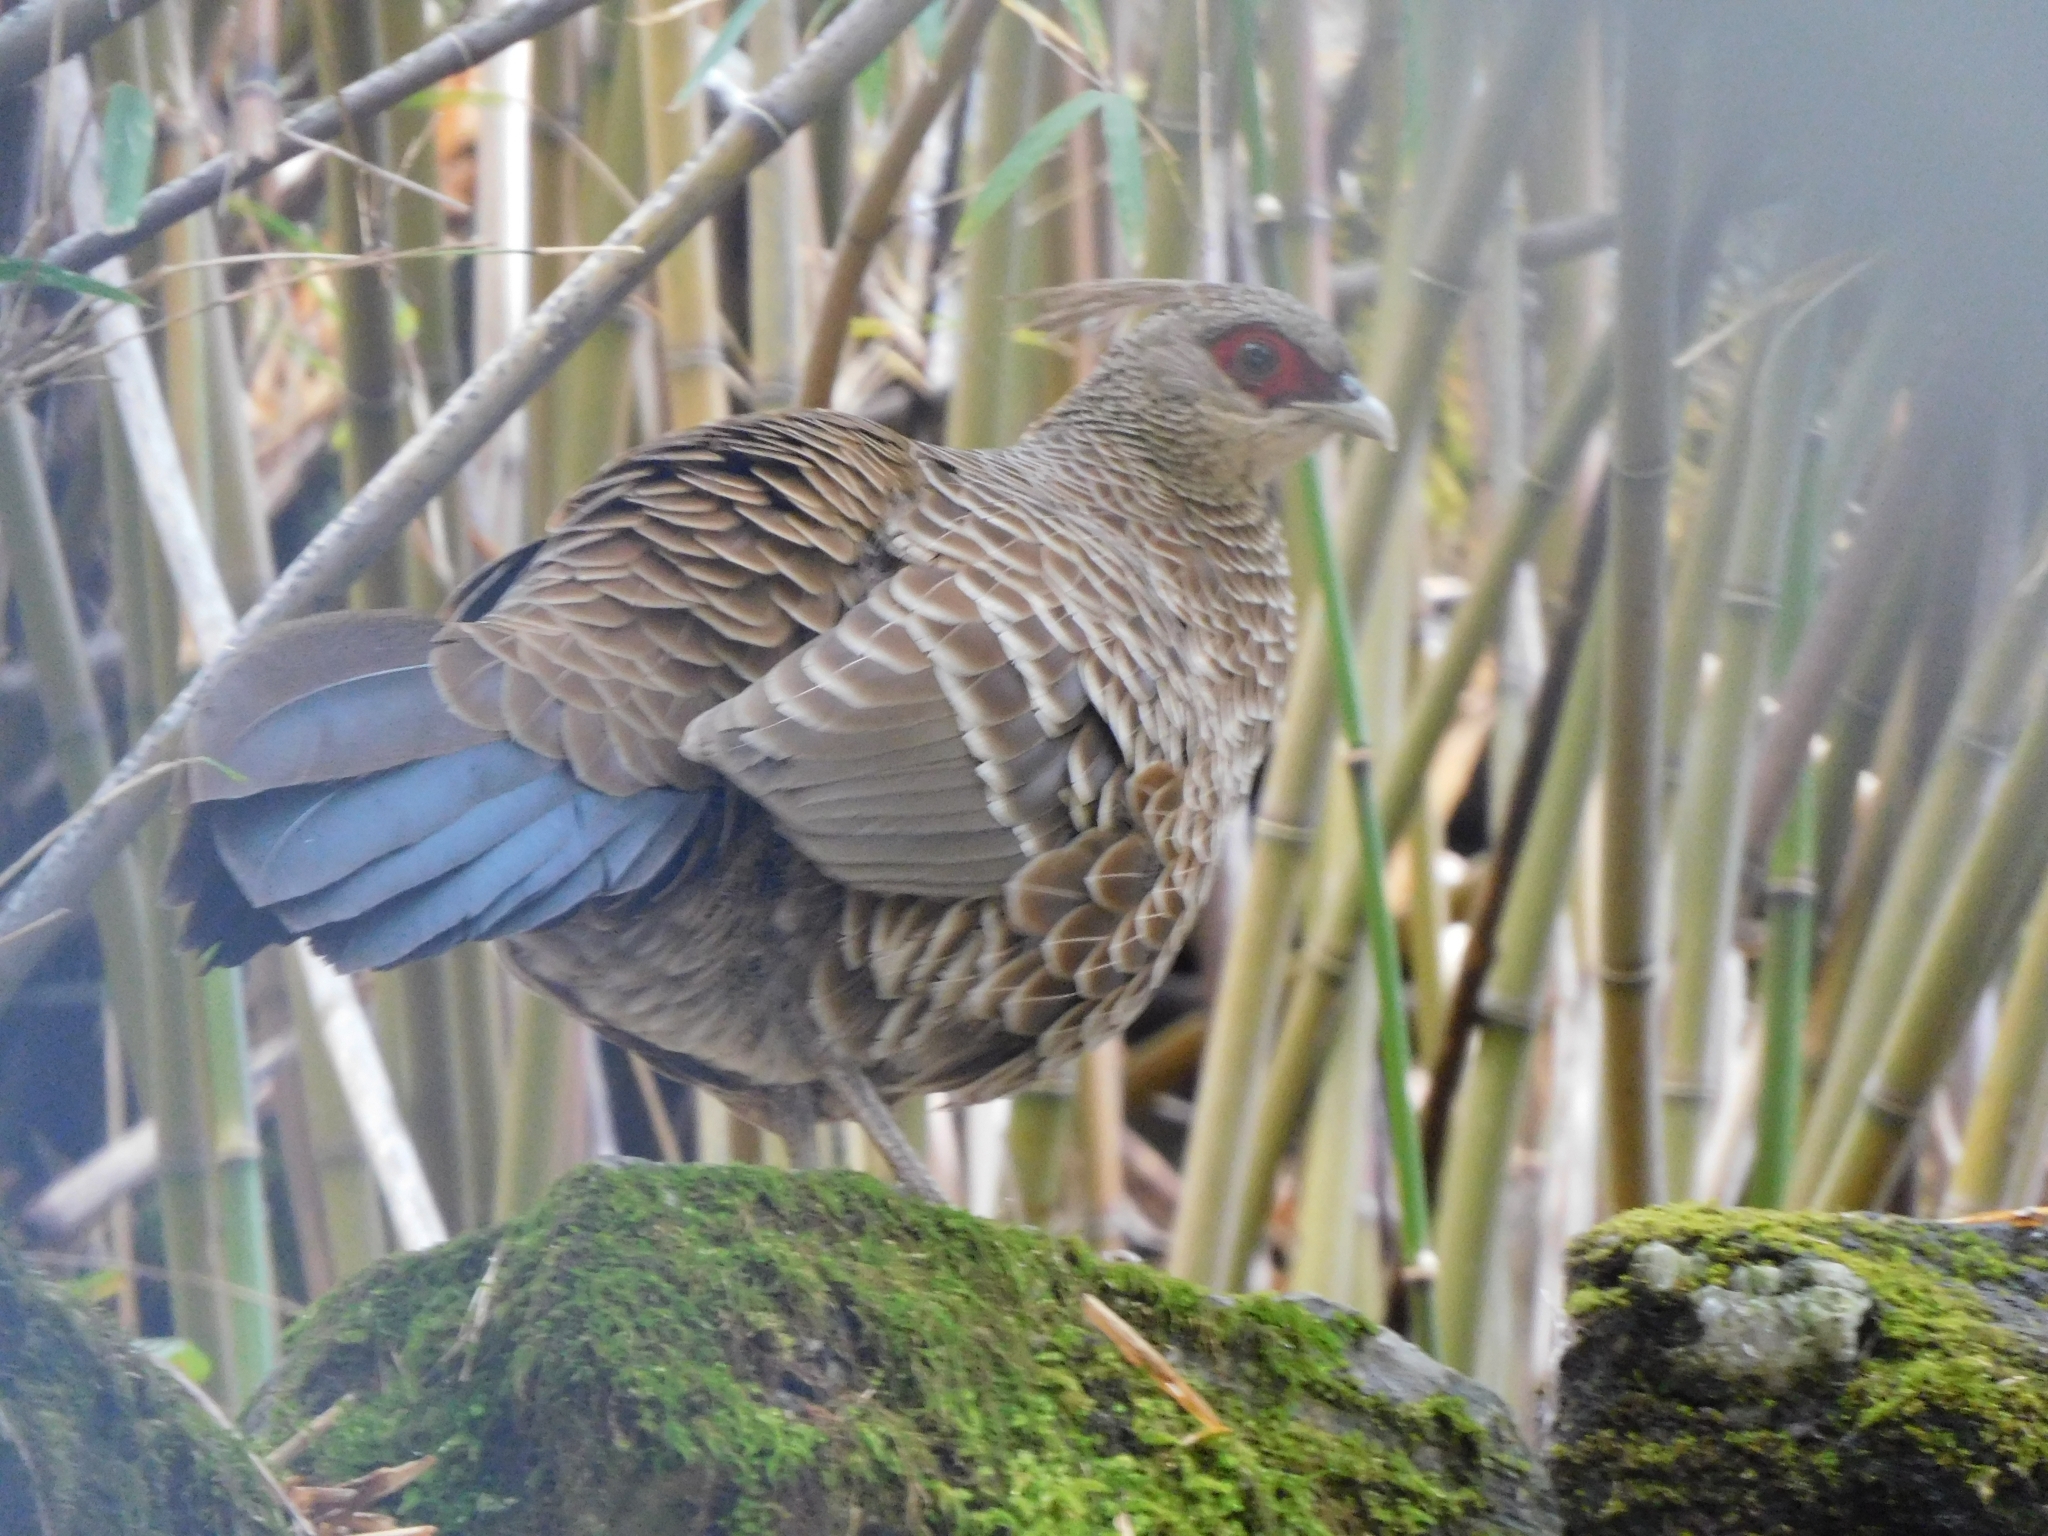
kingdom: Animalia
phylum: Chordata
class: Aves
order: Galliformes
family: Phasianidae
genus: Lophura
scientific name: Lophura leucomelanos
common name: Kalij pheasant
